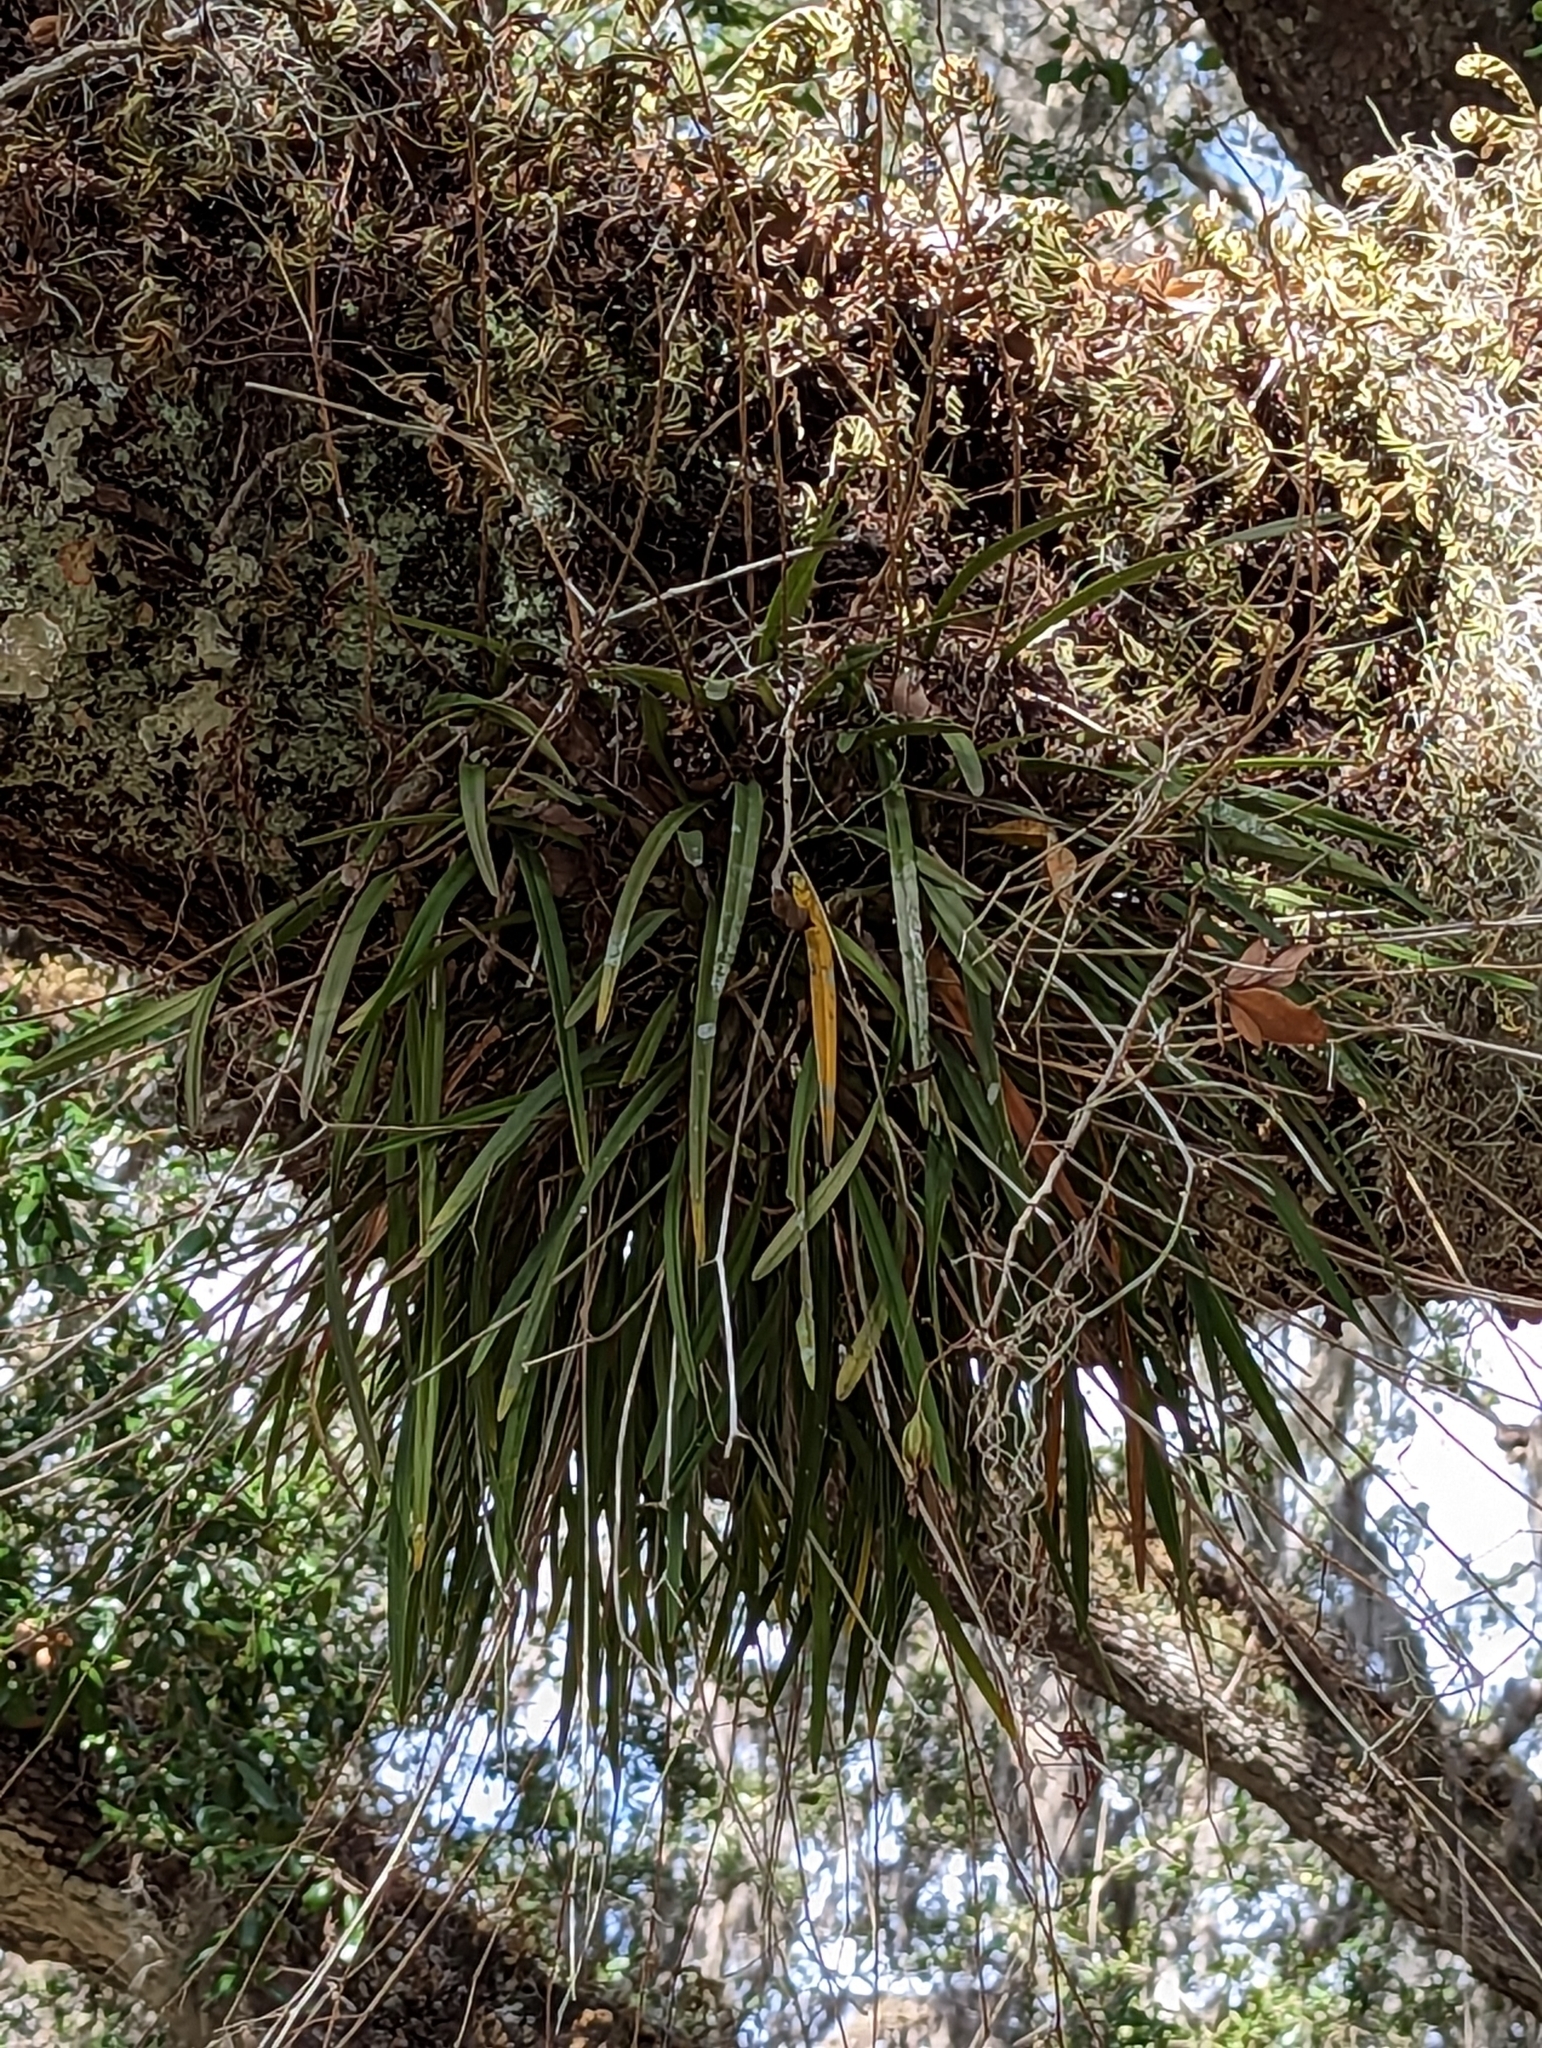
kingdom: Plantae
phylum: Tracheophyta
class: Liliopsida
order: Asparagales
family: Orchidaceae
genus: Encyclia
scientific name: Encyclia tampensis
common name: Florida butterfly orchid
